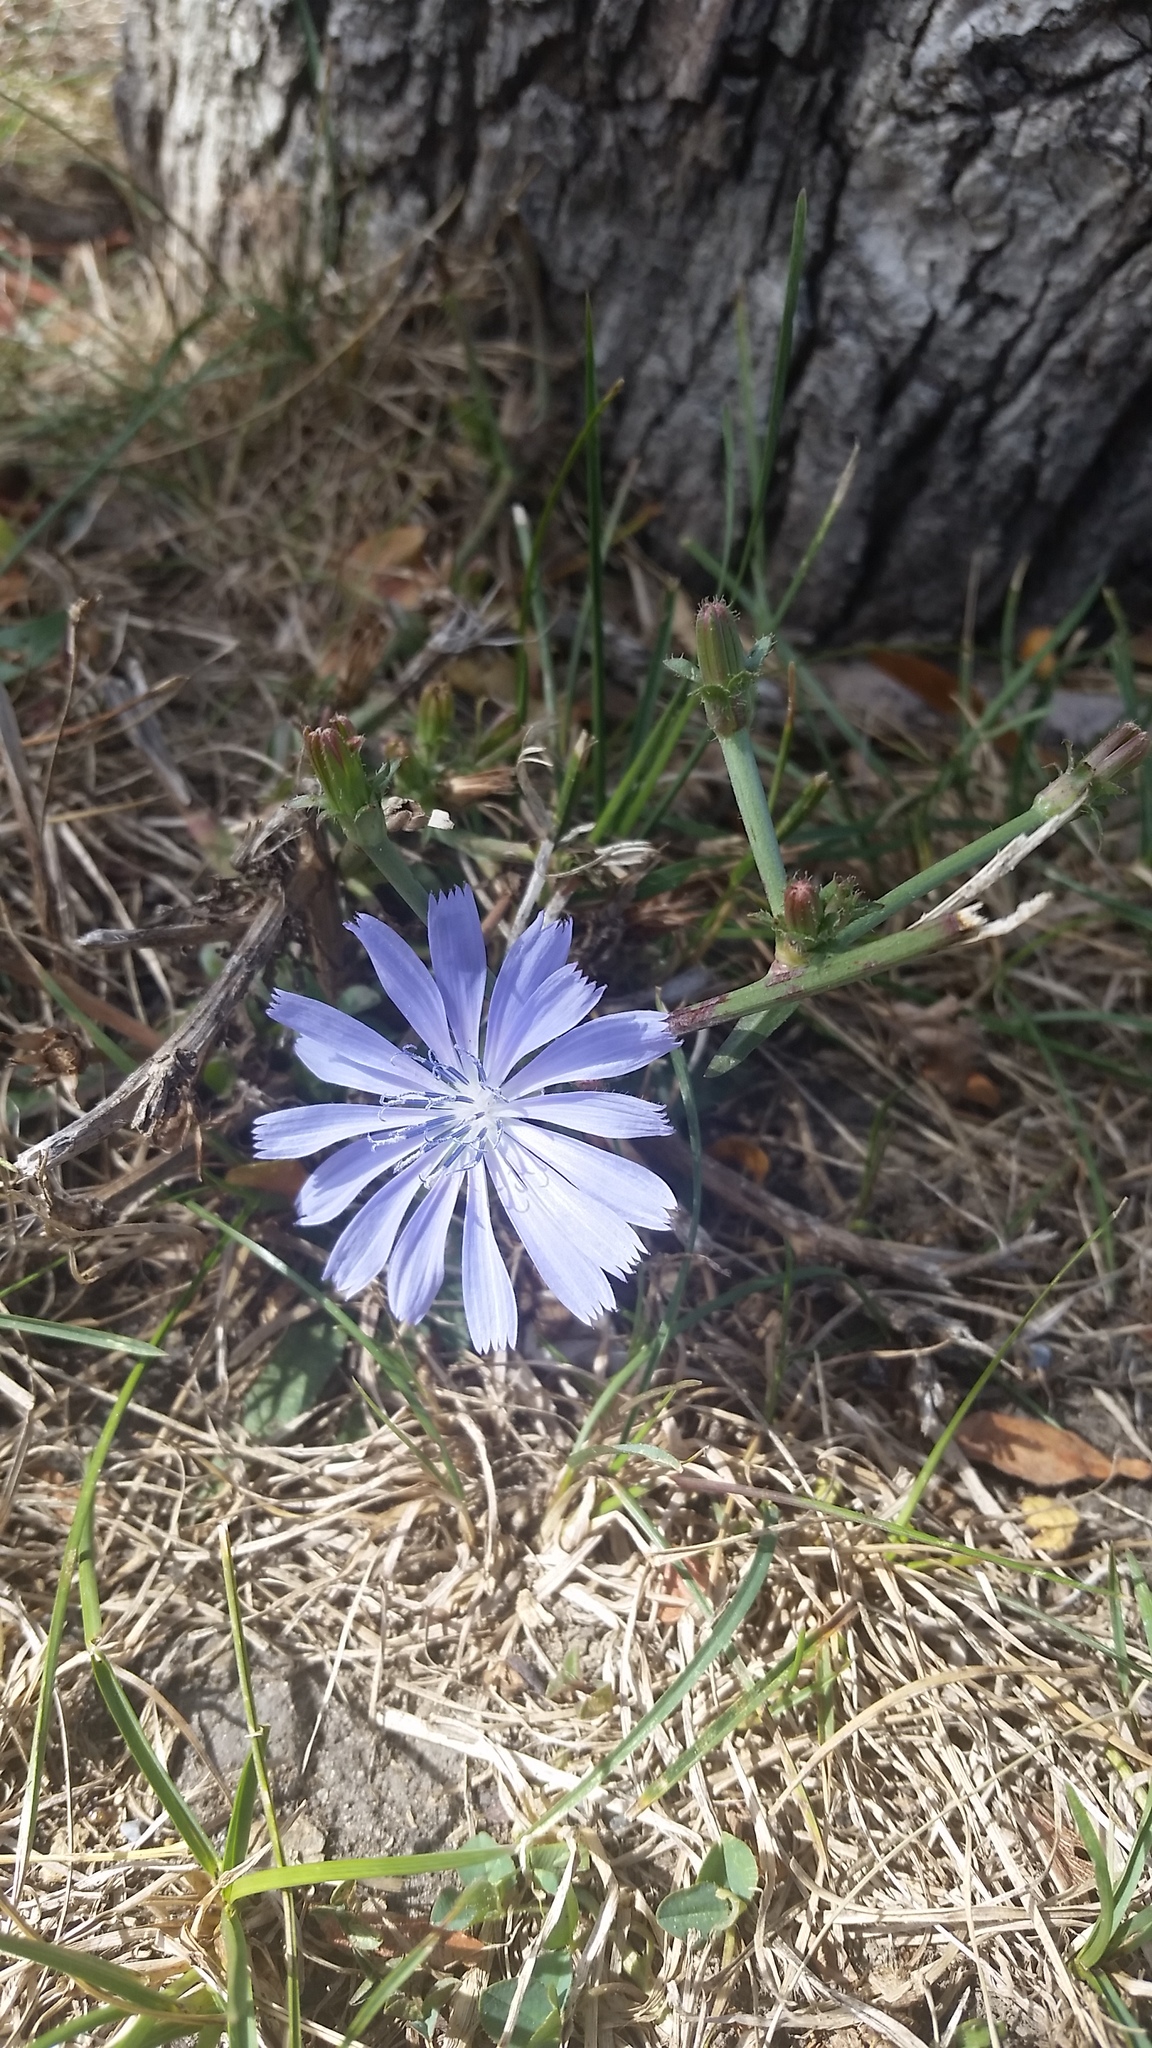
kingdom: Plantae
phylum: Tracheophyta
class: Magnoliopsida
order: Asterales
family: Asteraceae
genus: Cichorium
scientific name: Cichorium intybus
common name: Chicory
